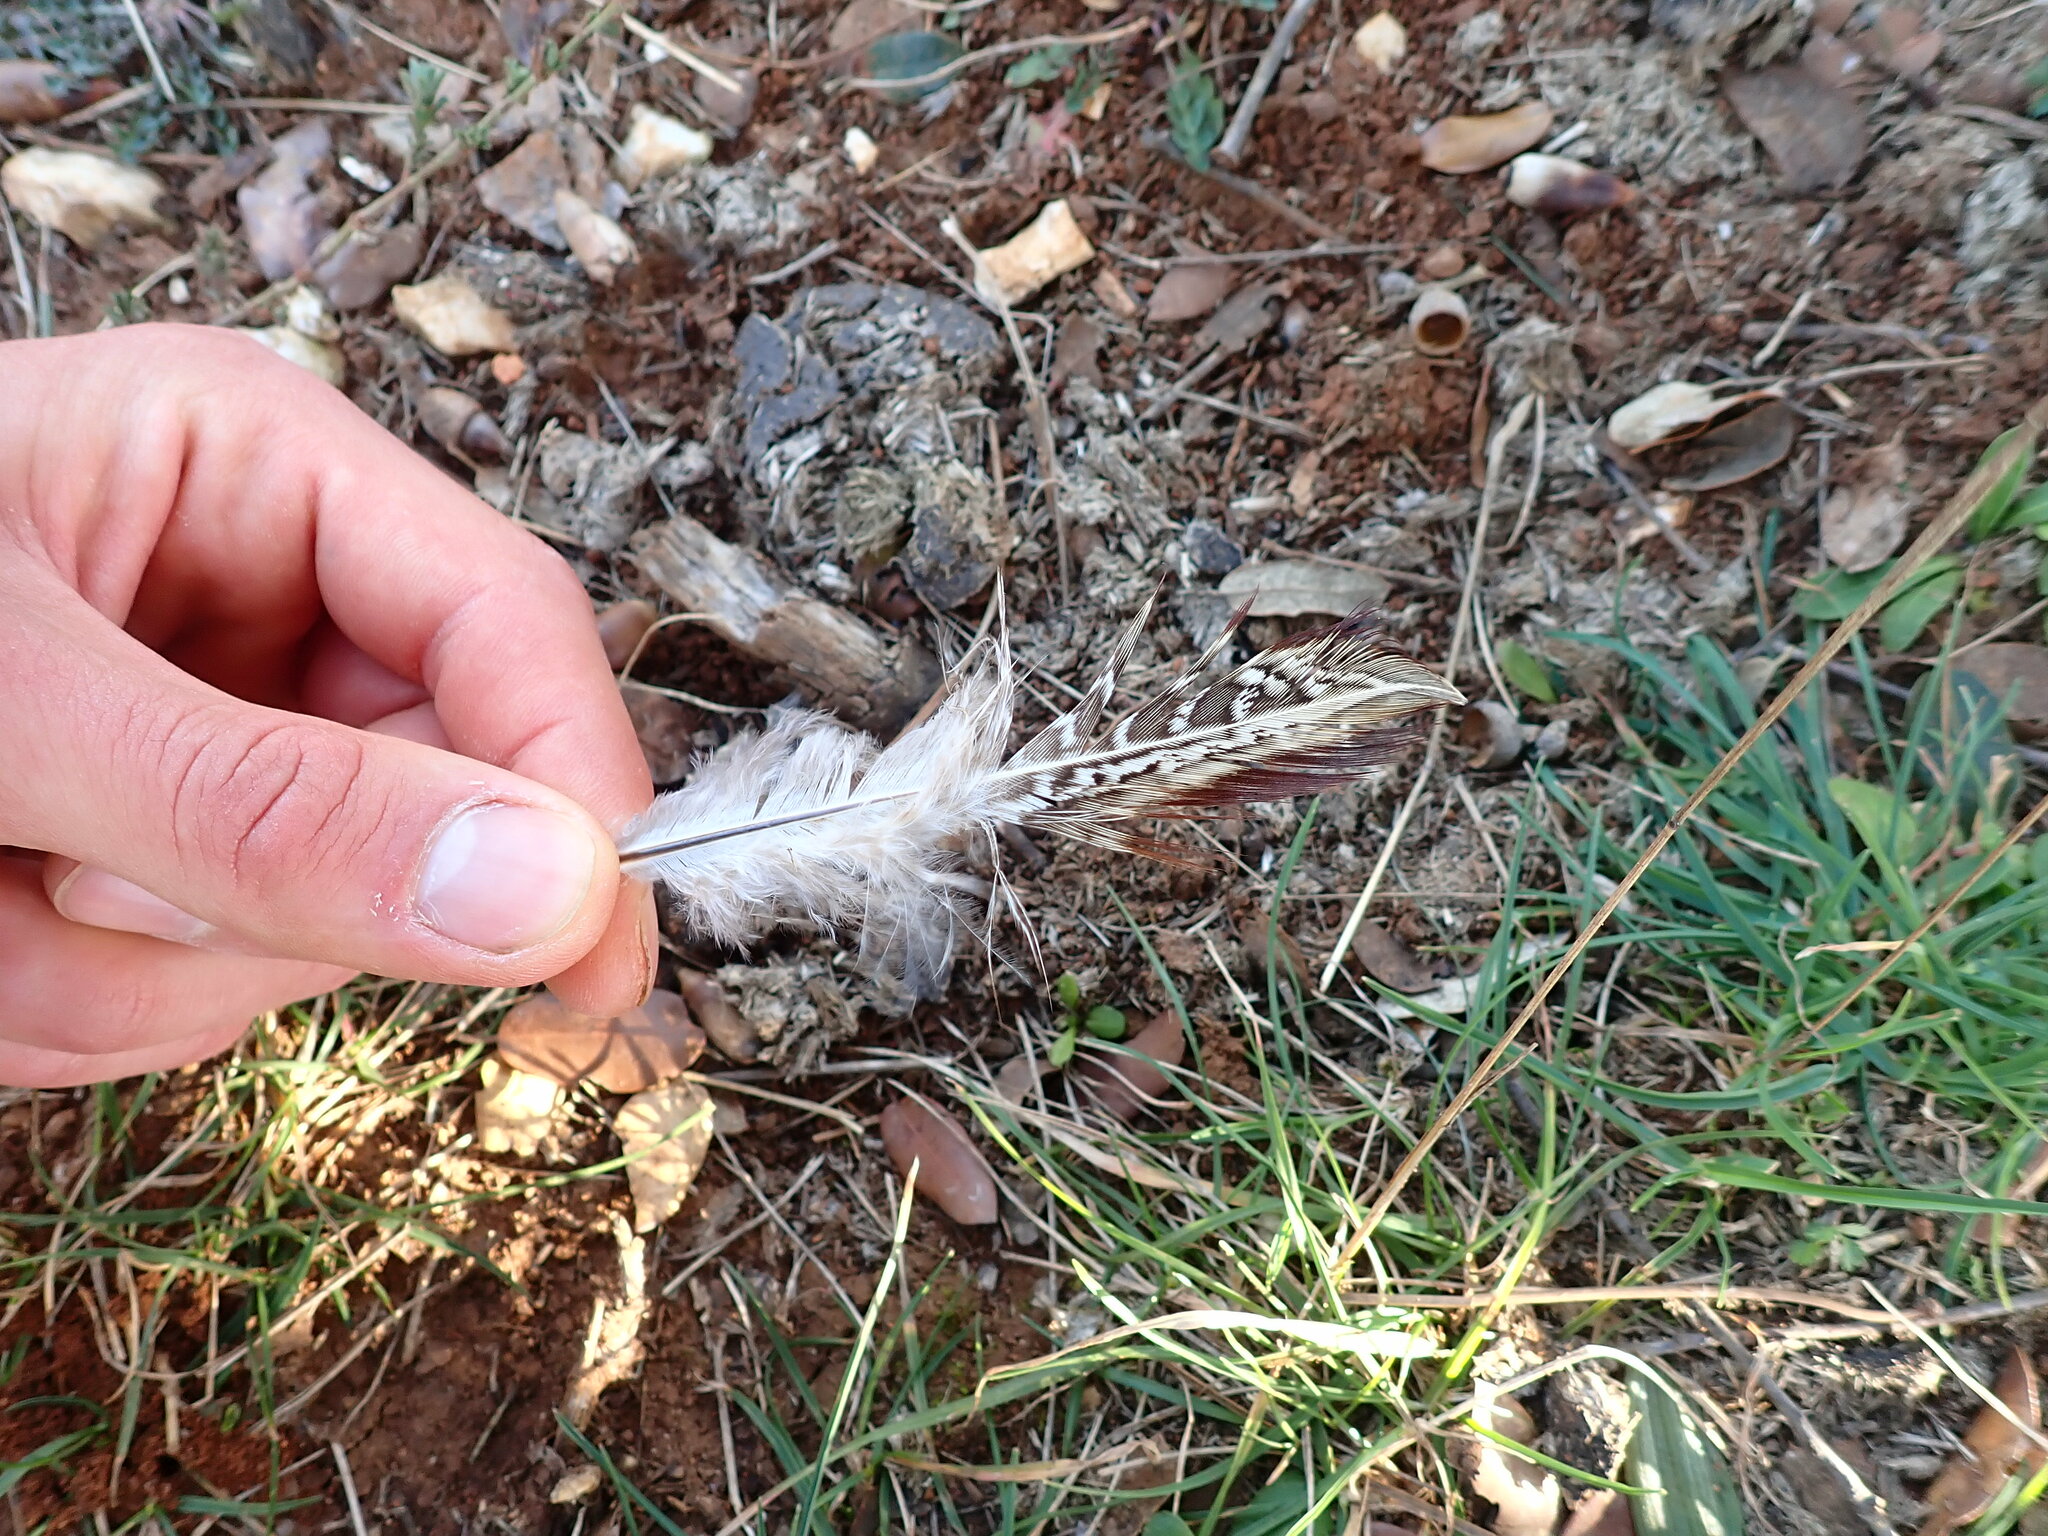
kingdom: Animalia
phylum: Chordata
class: Aves
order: Galliformes
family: Phasianidae
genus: Phasianus
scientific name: Phasianus colchicus
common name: Common pheasant
